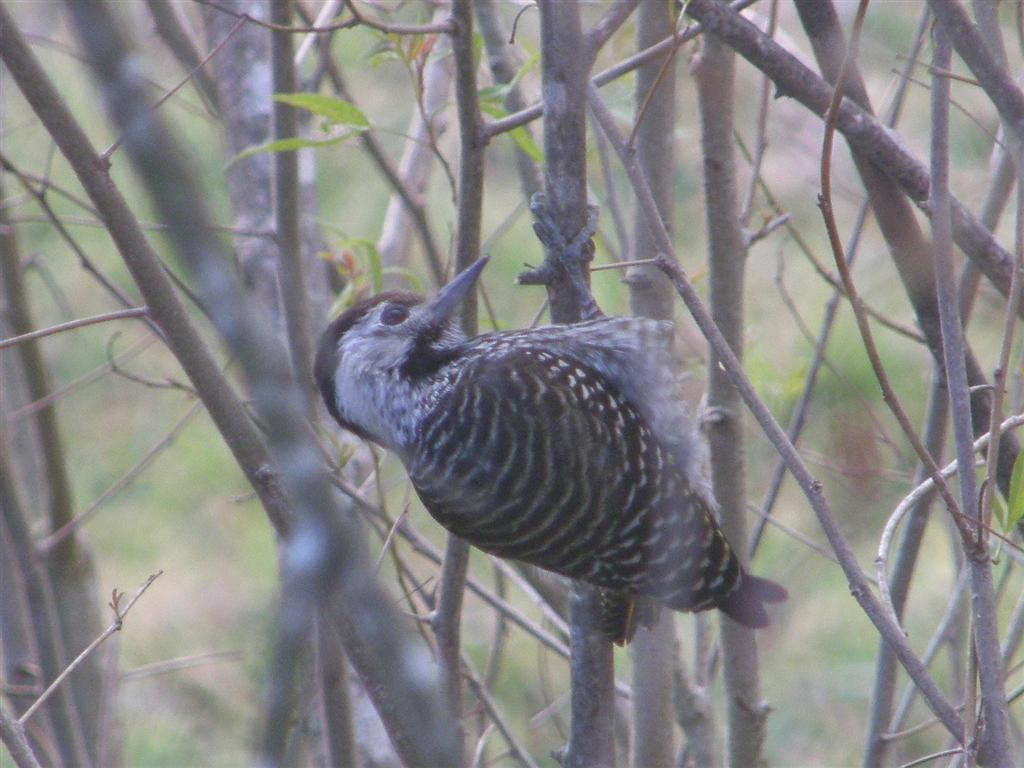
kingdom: Animalia
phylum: Chordata
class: Aves
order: Piciformes
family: Picidae
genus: Dendropicos
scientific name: Dendropicos fuscescens
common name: Cardinal woodpecker
